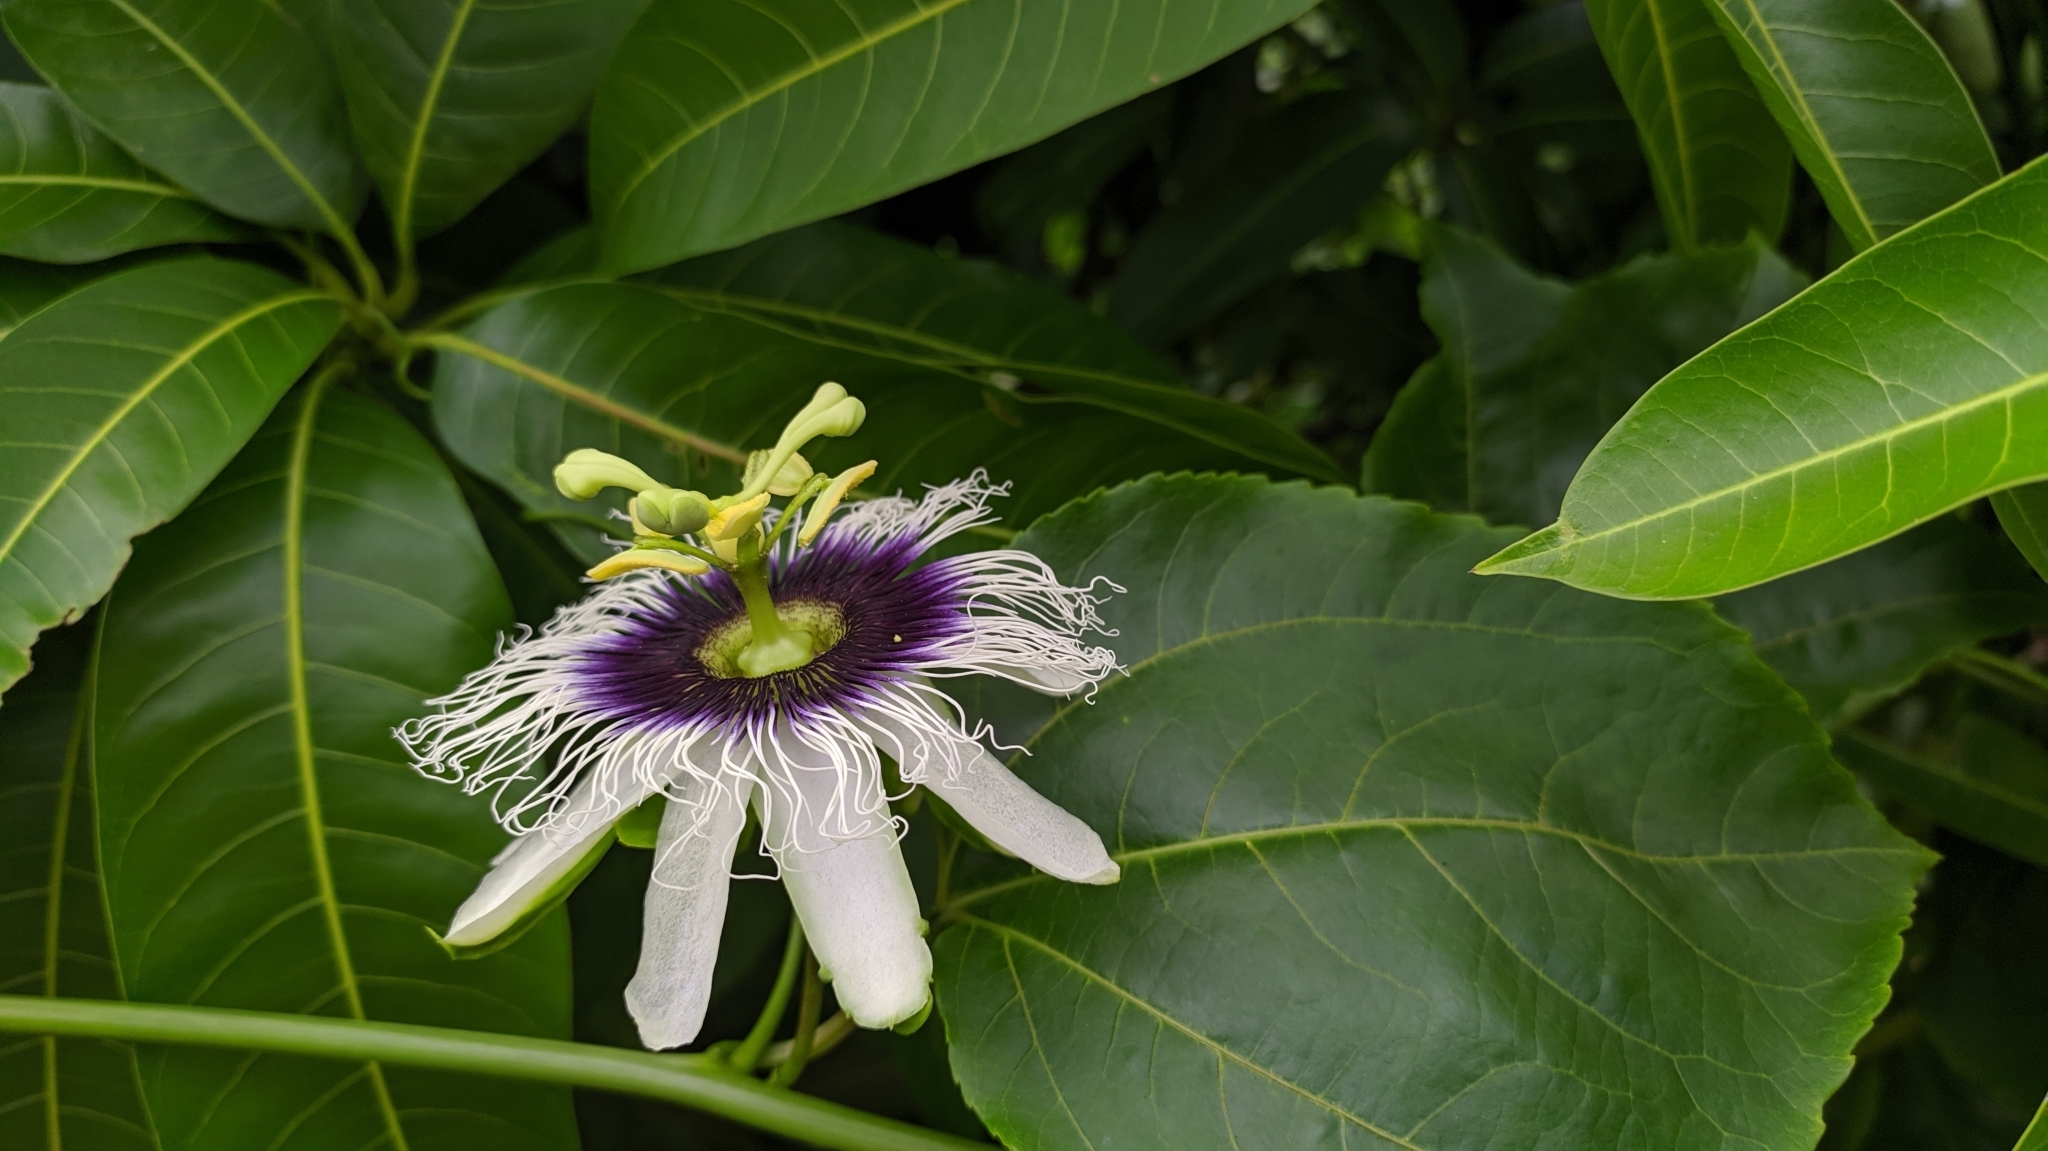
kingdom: Plantae
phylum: Tracheophyta
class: Magnoliopsida
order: Malpighiales
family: Passifloraceae
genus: Passiflora
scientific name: Passiflora edulis
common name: Purple granadilla
